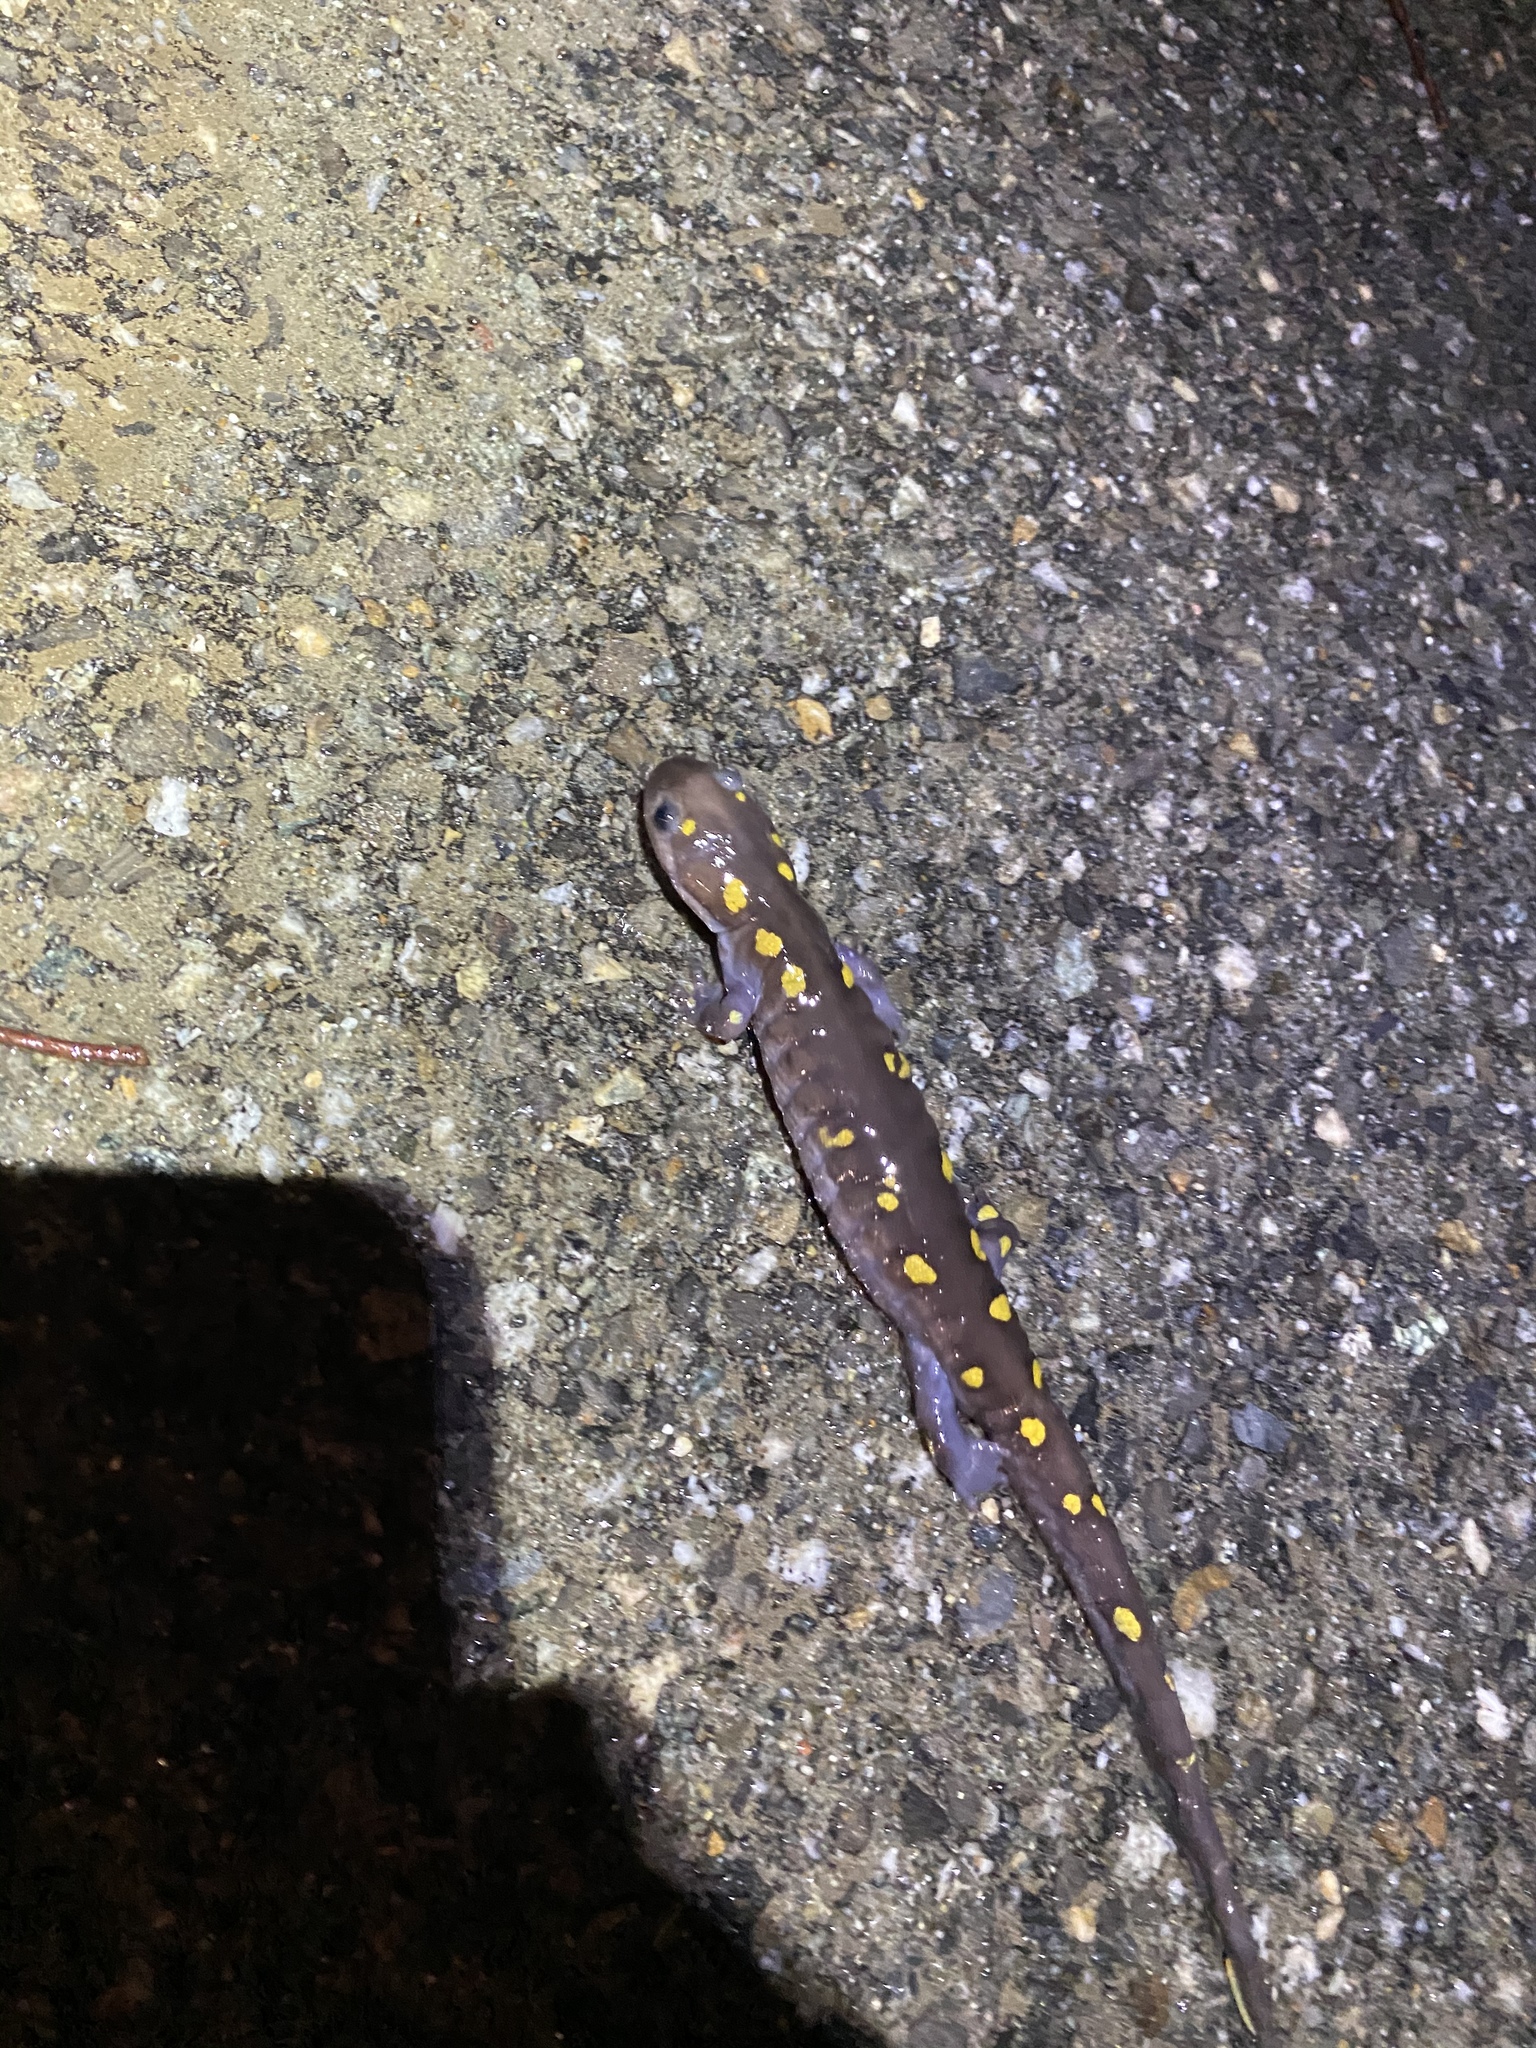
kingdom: Animalia
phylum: Chordata
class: Amphibia
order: Caudata
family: Ambystomatidae
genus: Ambystoma
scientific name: Ambystoma maculatum
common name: Spotted salamander
